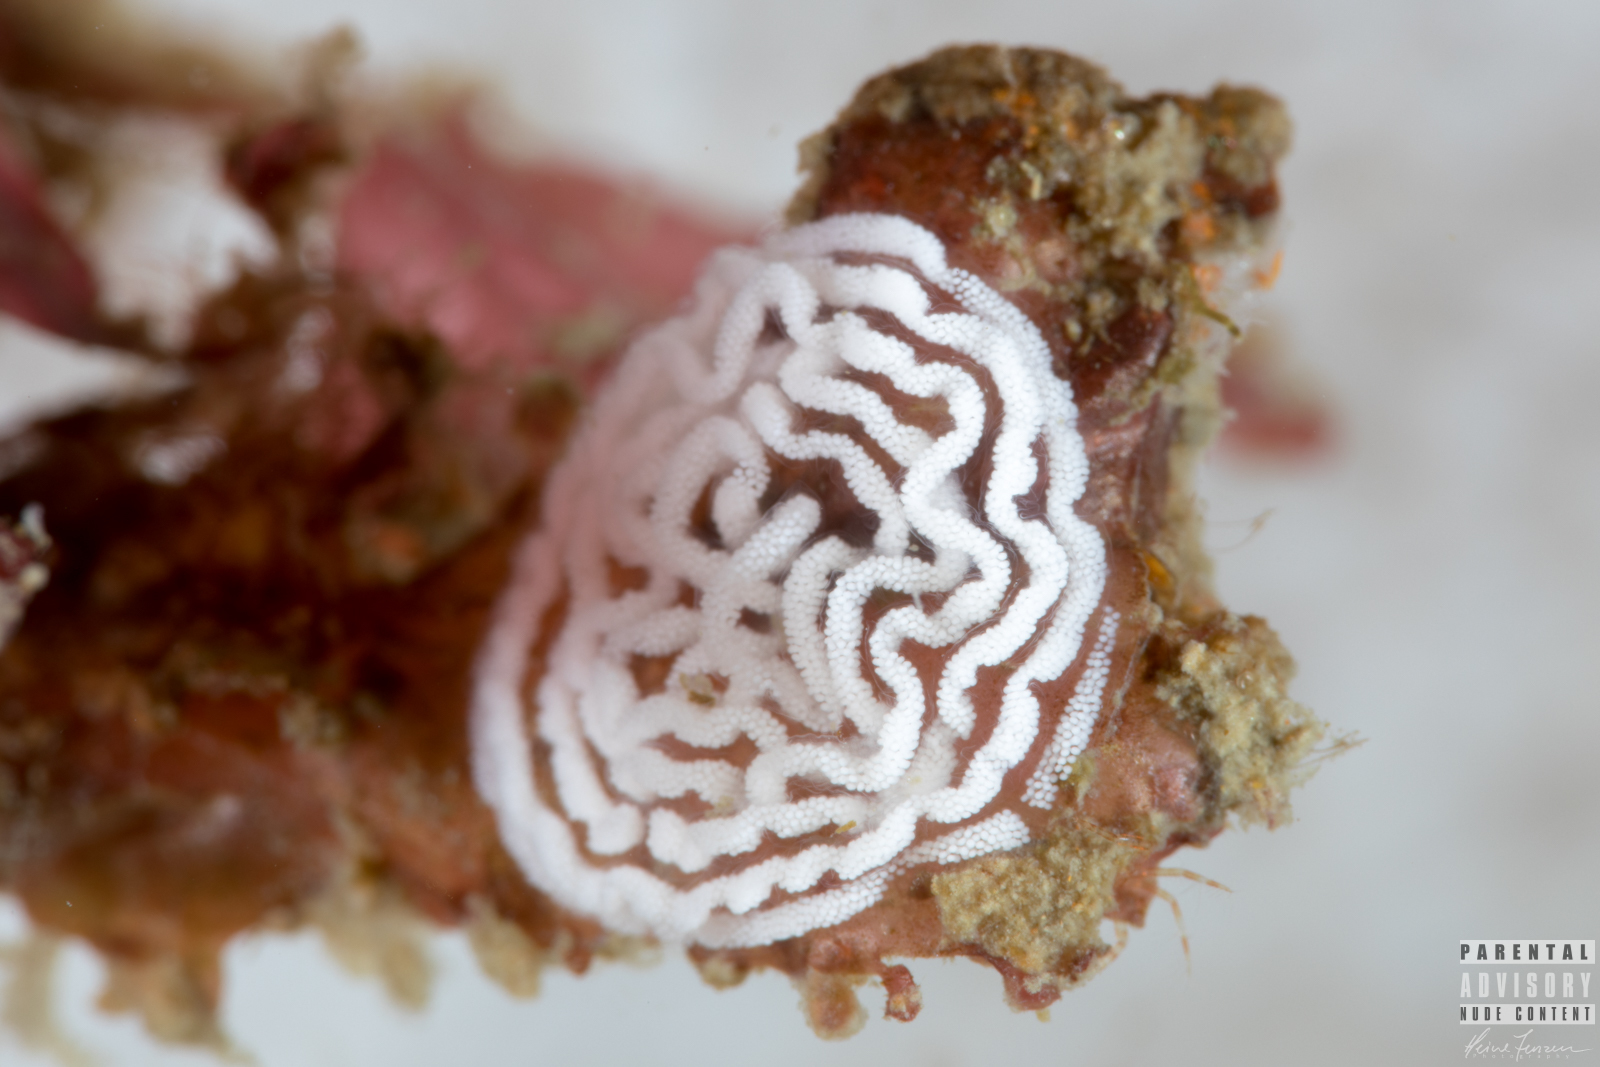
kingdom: Animalia
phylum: Mollusca
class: Gastropoda
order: Nudibranchia
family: Tritoniidae
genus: Duvaucelia
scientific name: Duvaucelia plebeia
